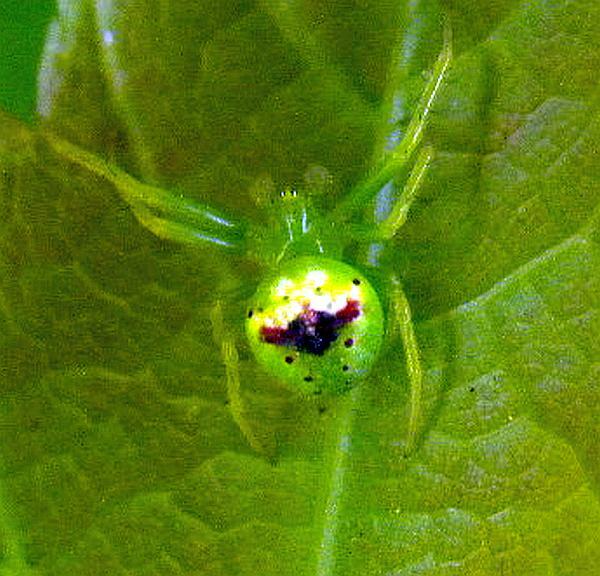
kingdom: Animalia
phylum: Arthropoda
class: Arachnida
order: Araneae
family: Araneidae
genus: Araneus
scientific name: Araneus bonsallae
